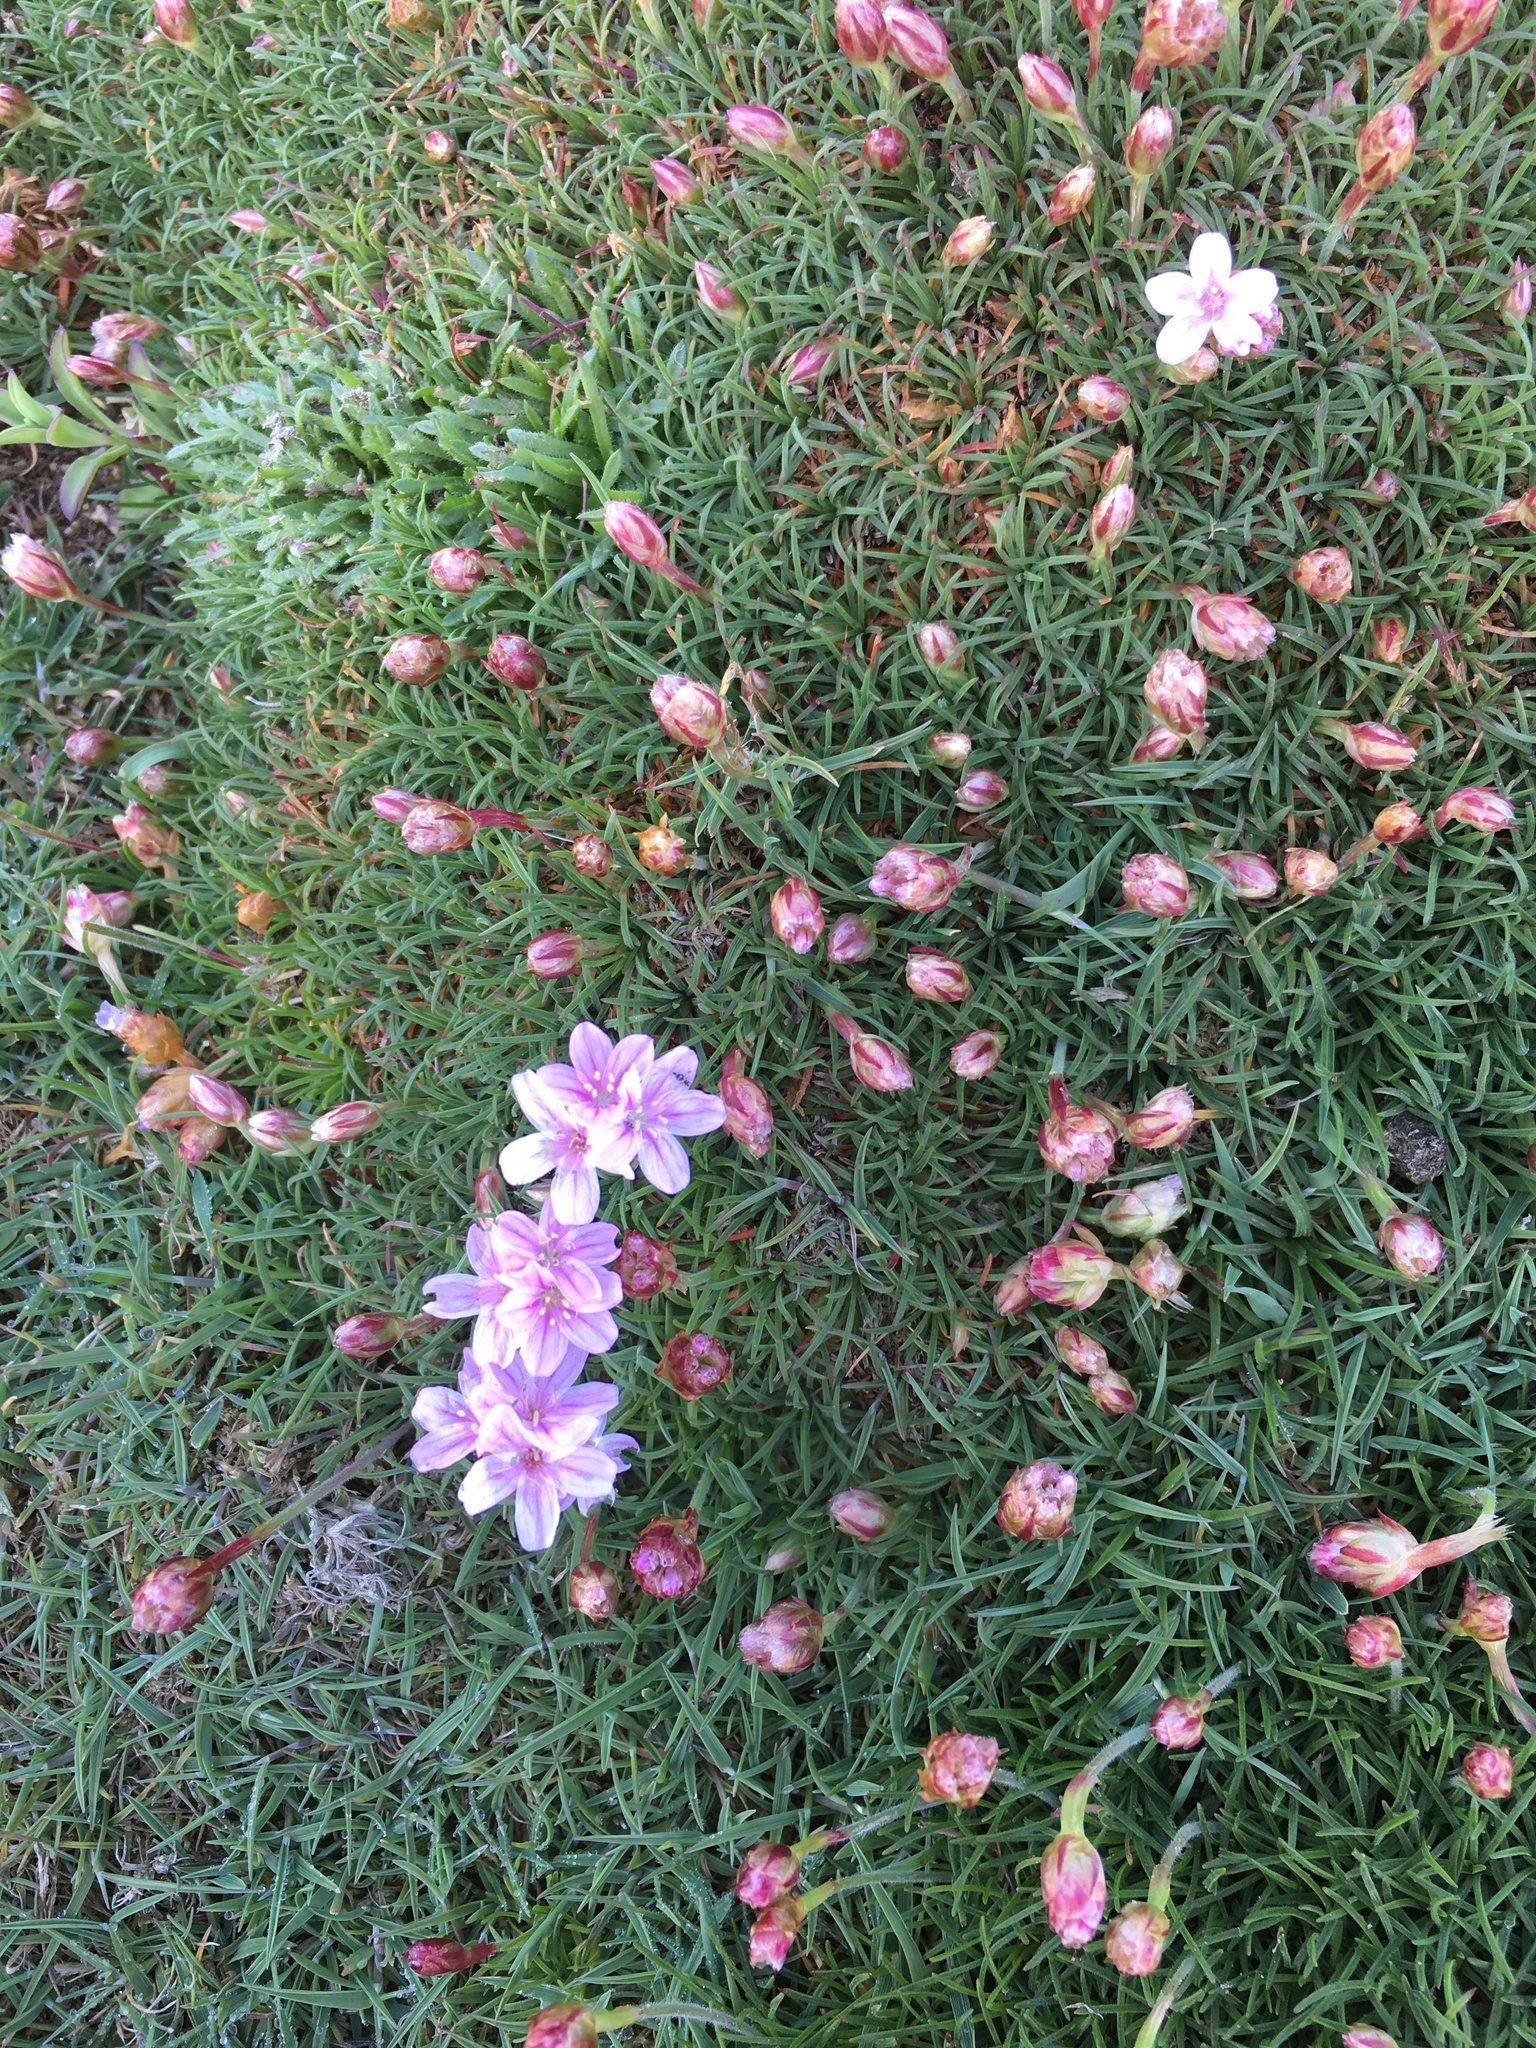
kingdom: Plantae
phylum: Tracheophyta
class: Magnoliopsida
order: Caryophyllales
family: Plumbaginaceae
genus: Armeria
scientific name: Armeria maritima
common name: Thrift
